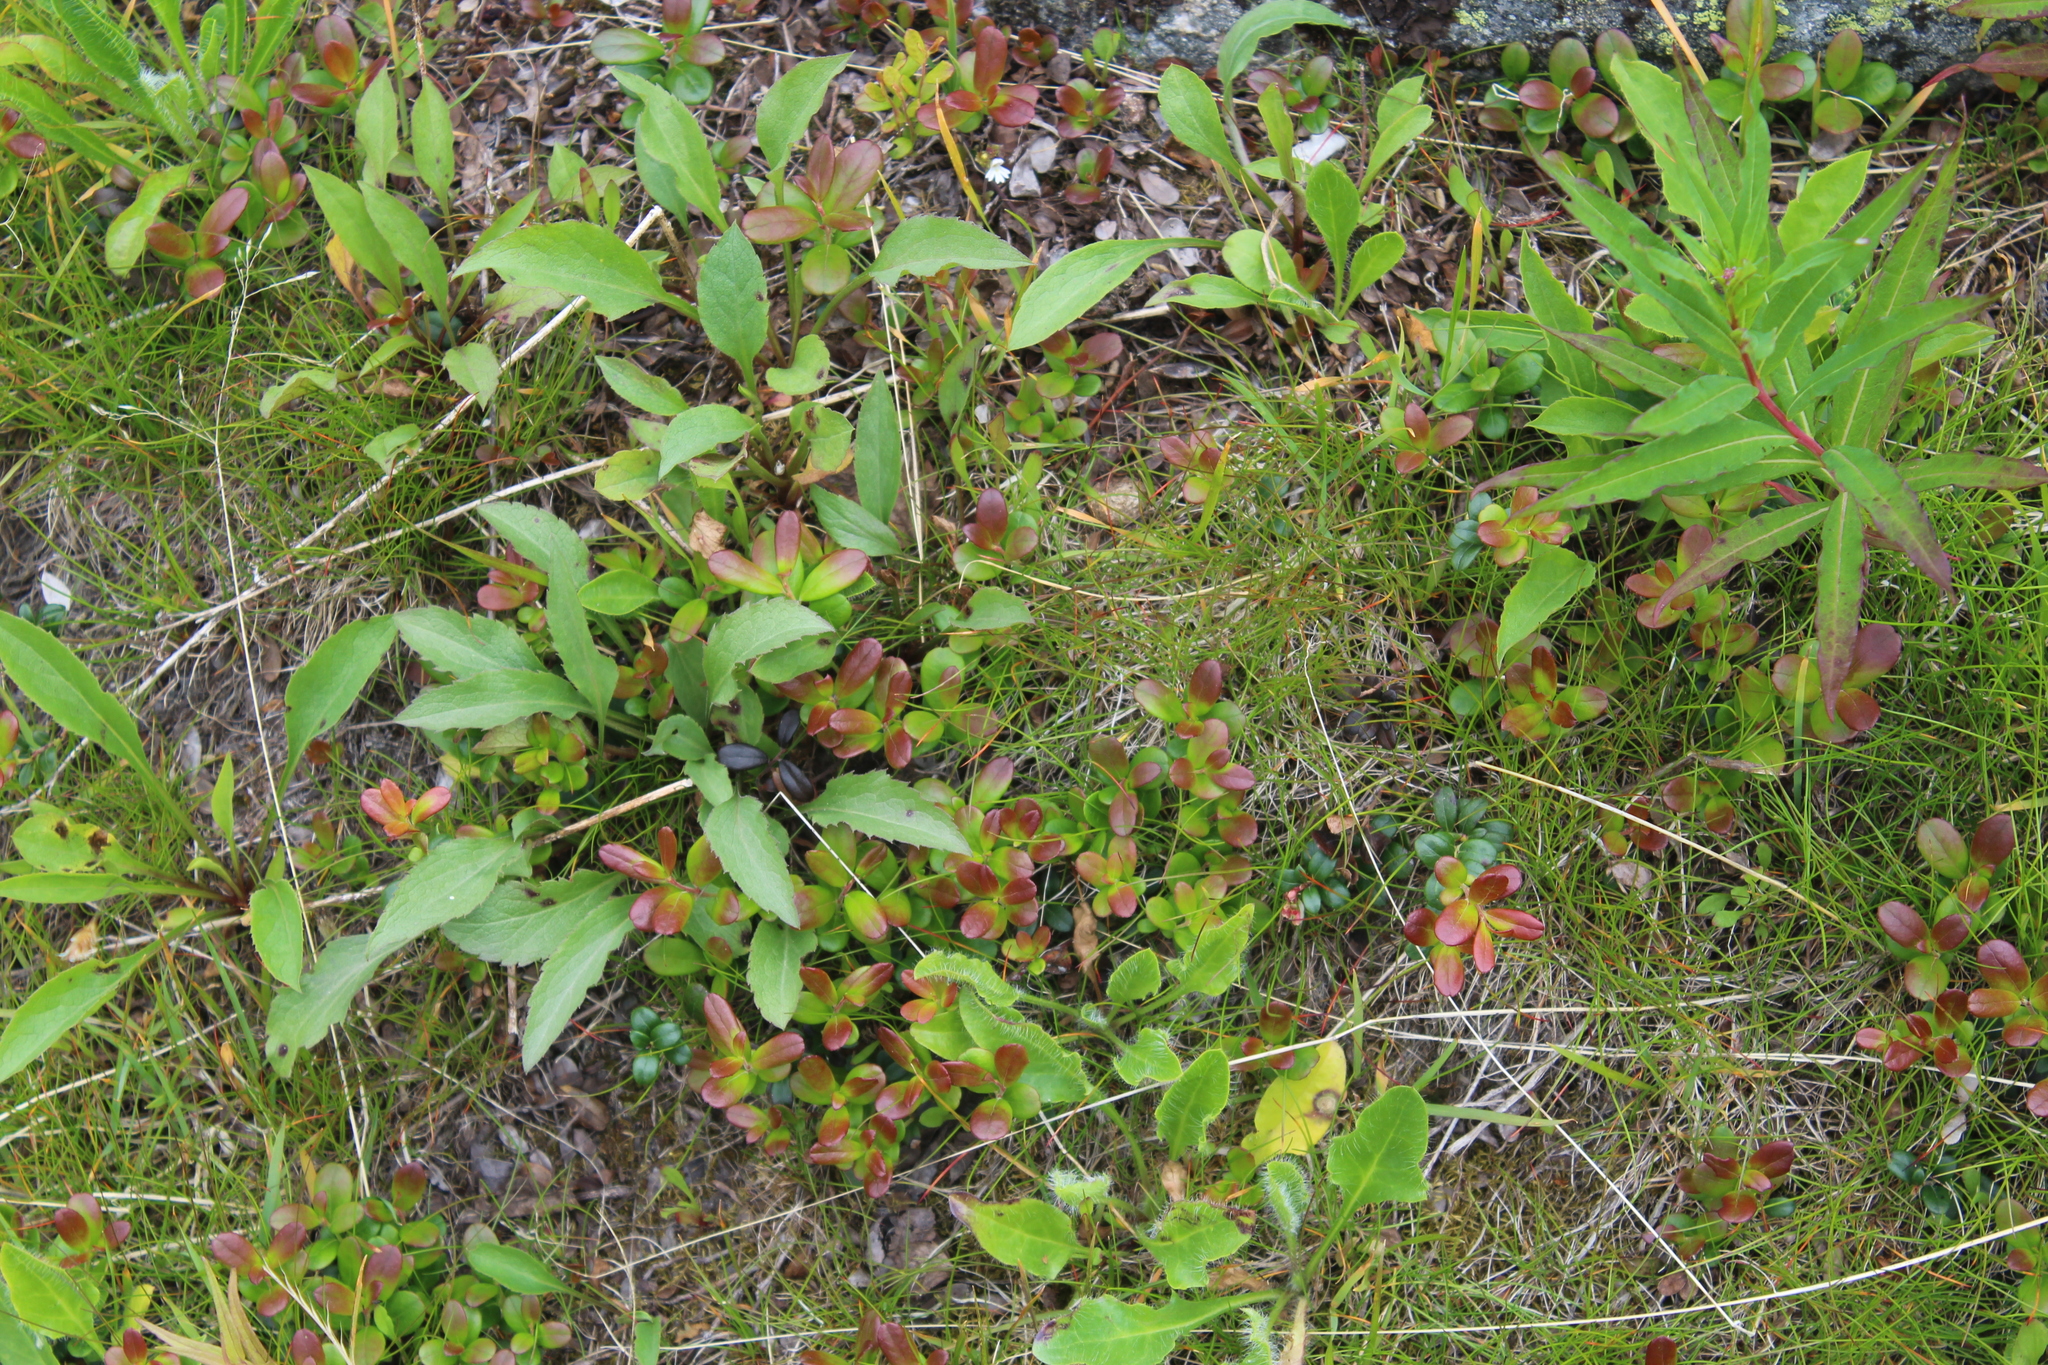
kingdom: Plantae
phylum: Tracheophyta
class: Magnoliopsida
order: Ericales
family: Ericaceae
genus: Vaccinium
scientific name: Vaccinium vitis-idaea
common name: Cowberry
